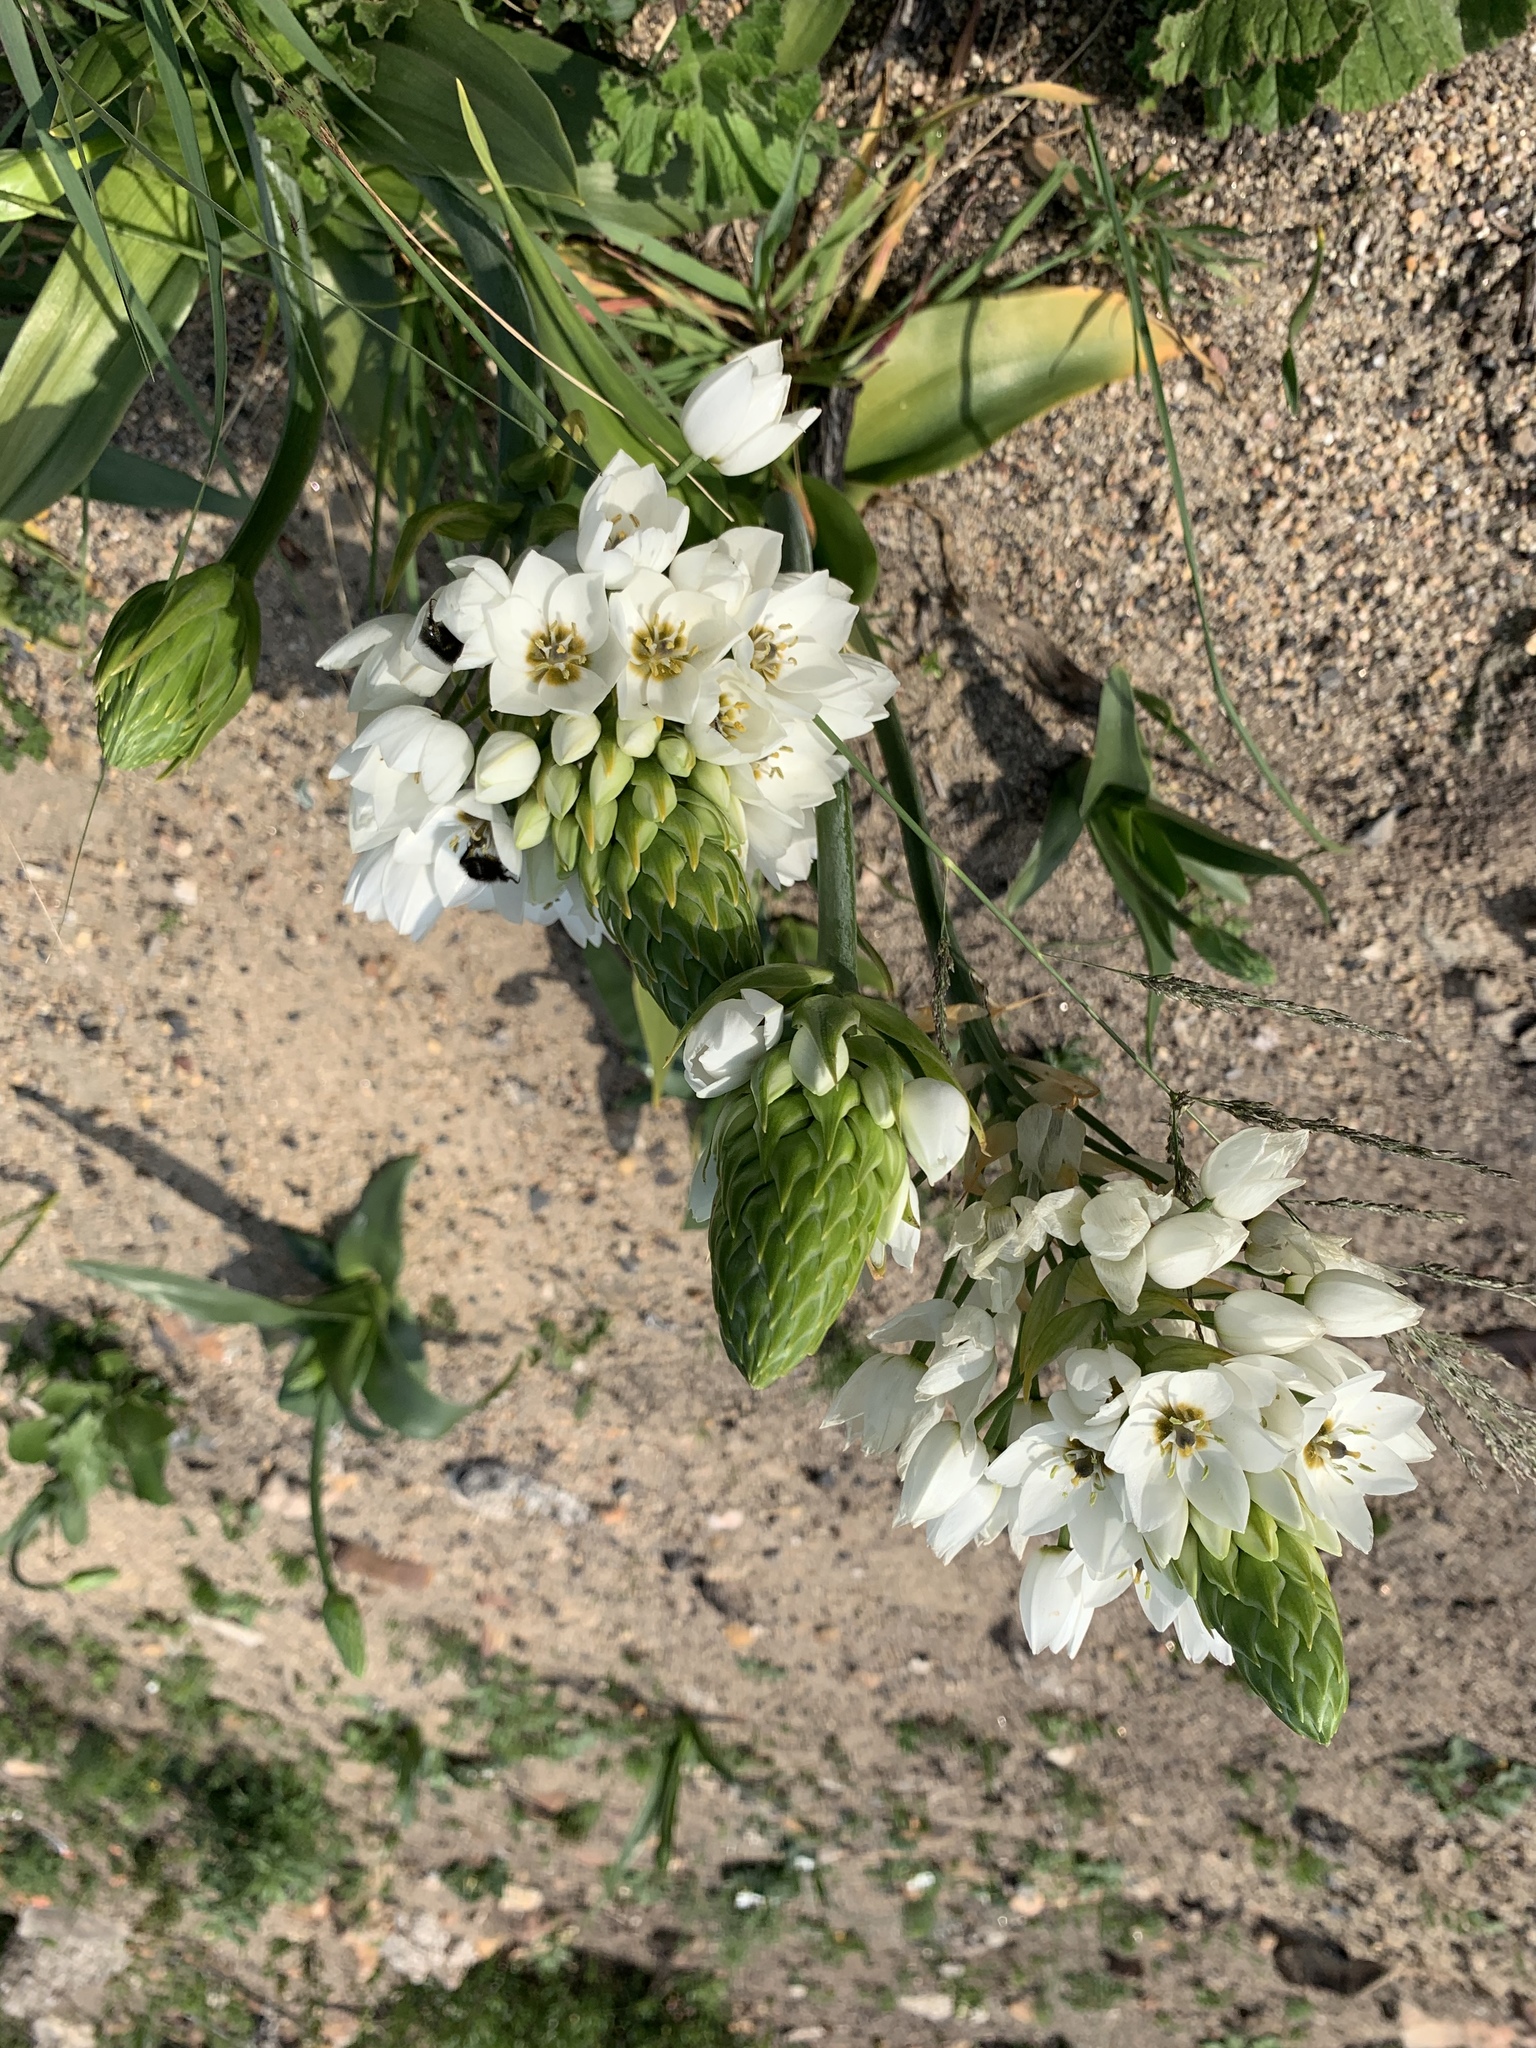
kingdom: Plantae
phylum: Tracheophyta
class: Liliopsida
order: Asparagales
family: Asparagaceae
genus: Ornithogalum
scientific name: Ornithogalum thyrsoides
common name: Chincherinchee
